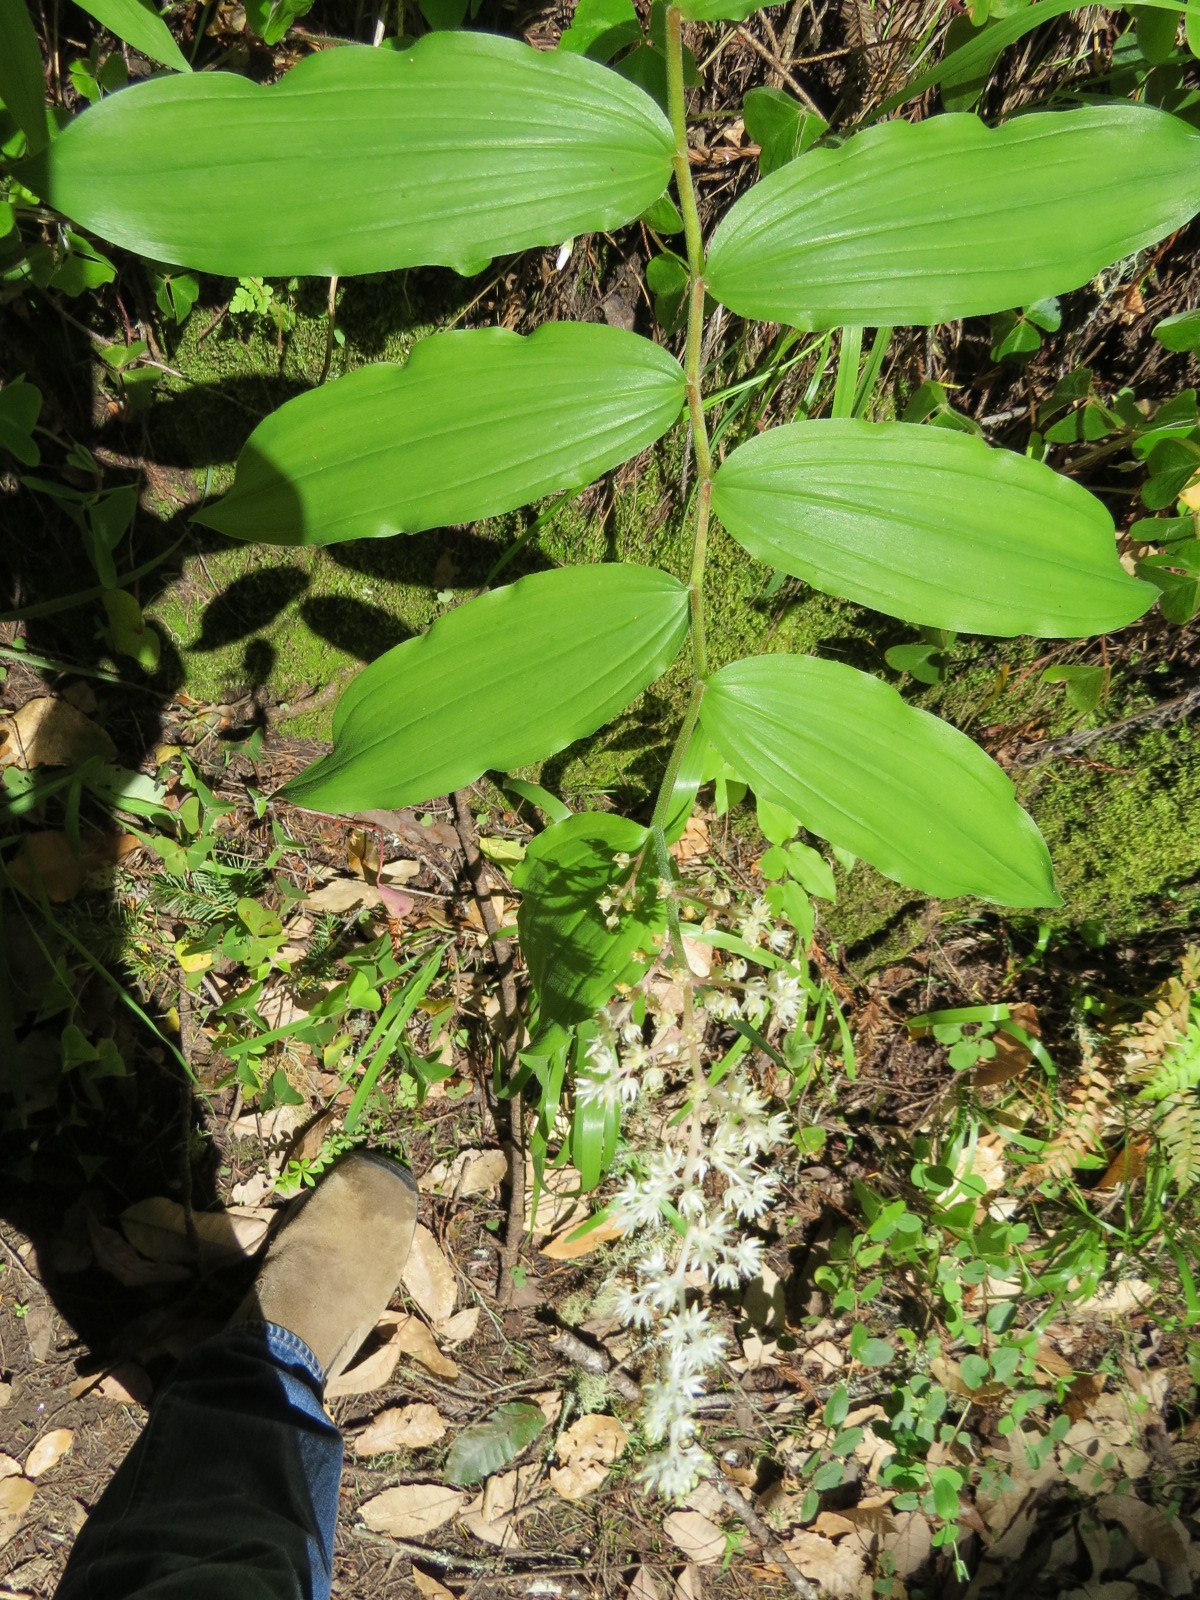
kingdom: Plantae
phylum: Tracheophyta
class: Liliopsida
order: Asparagales
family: Asparagaceae
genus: Maianthemum
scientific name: Maianthemum racemosum
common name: False spikenard
